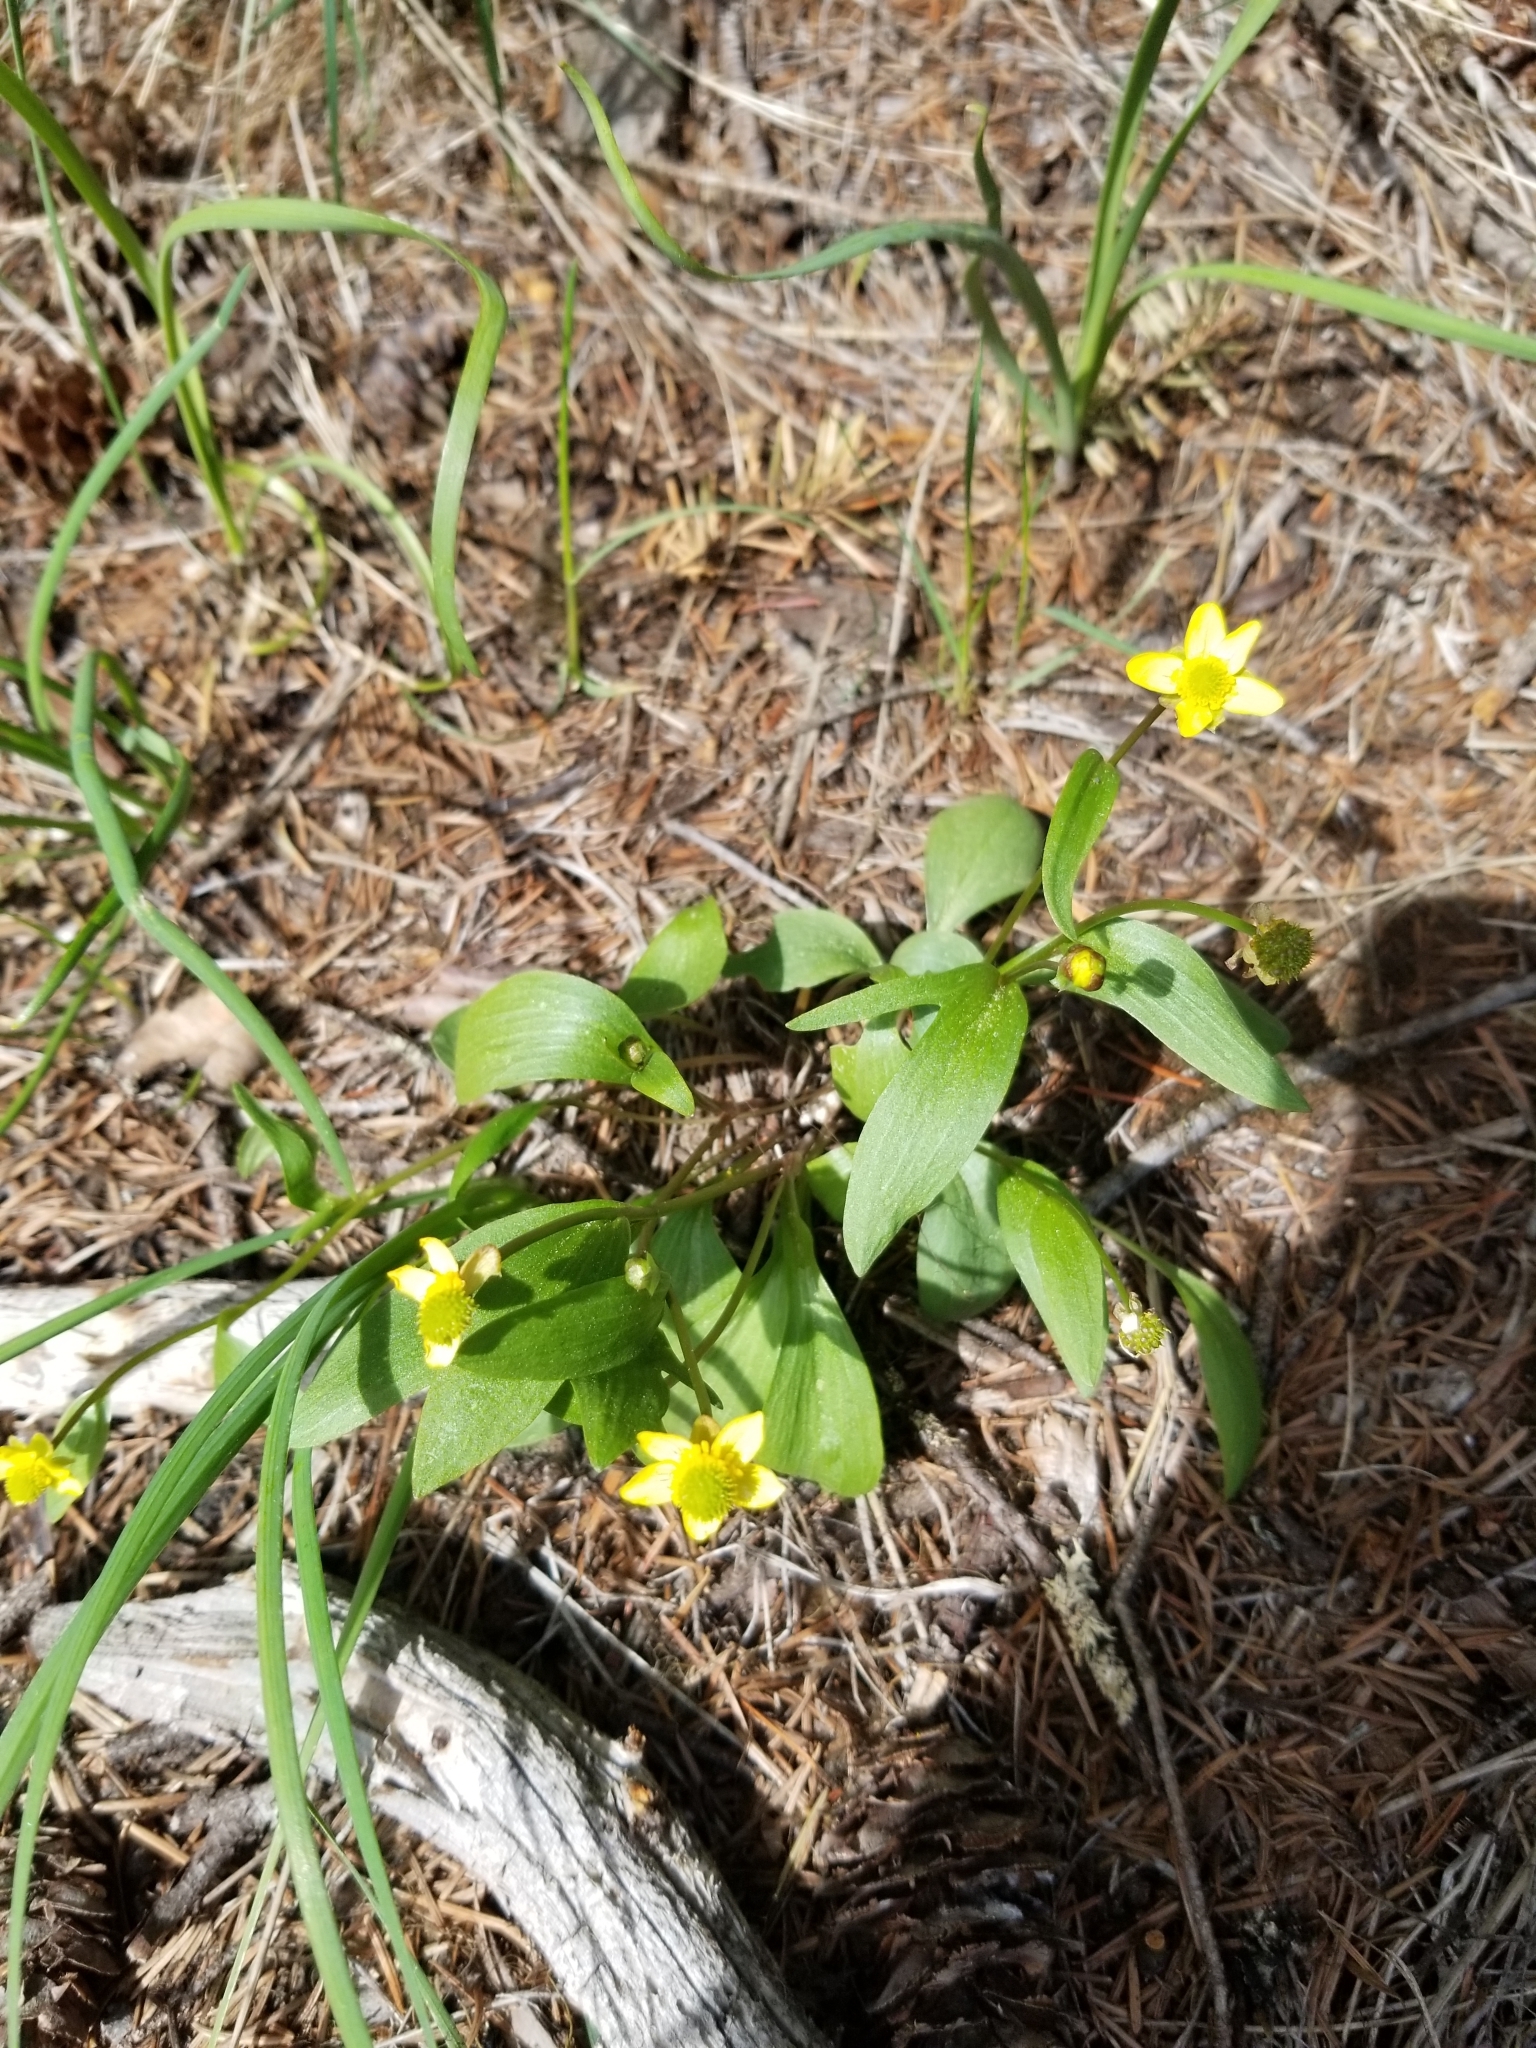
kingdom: Plantae
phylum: Tracheophyta
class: Magnoliopsida
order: Ranunculales
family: Ranunculaceae
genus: Ranunculus
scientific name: Ranunculus glaberrimus
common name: Sagebrush buttercup
